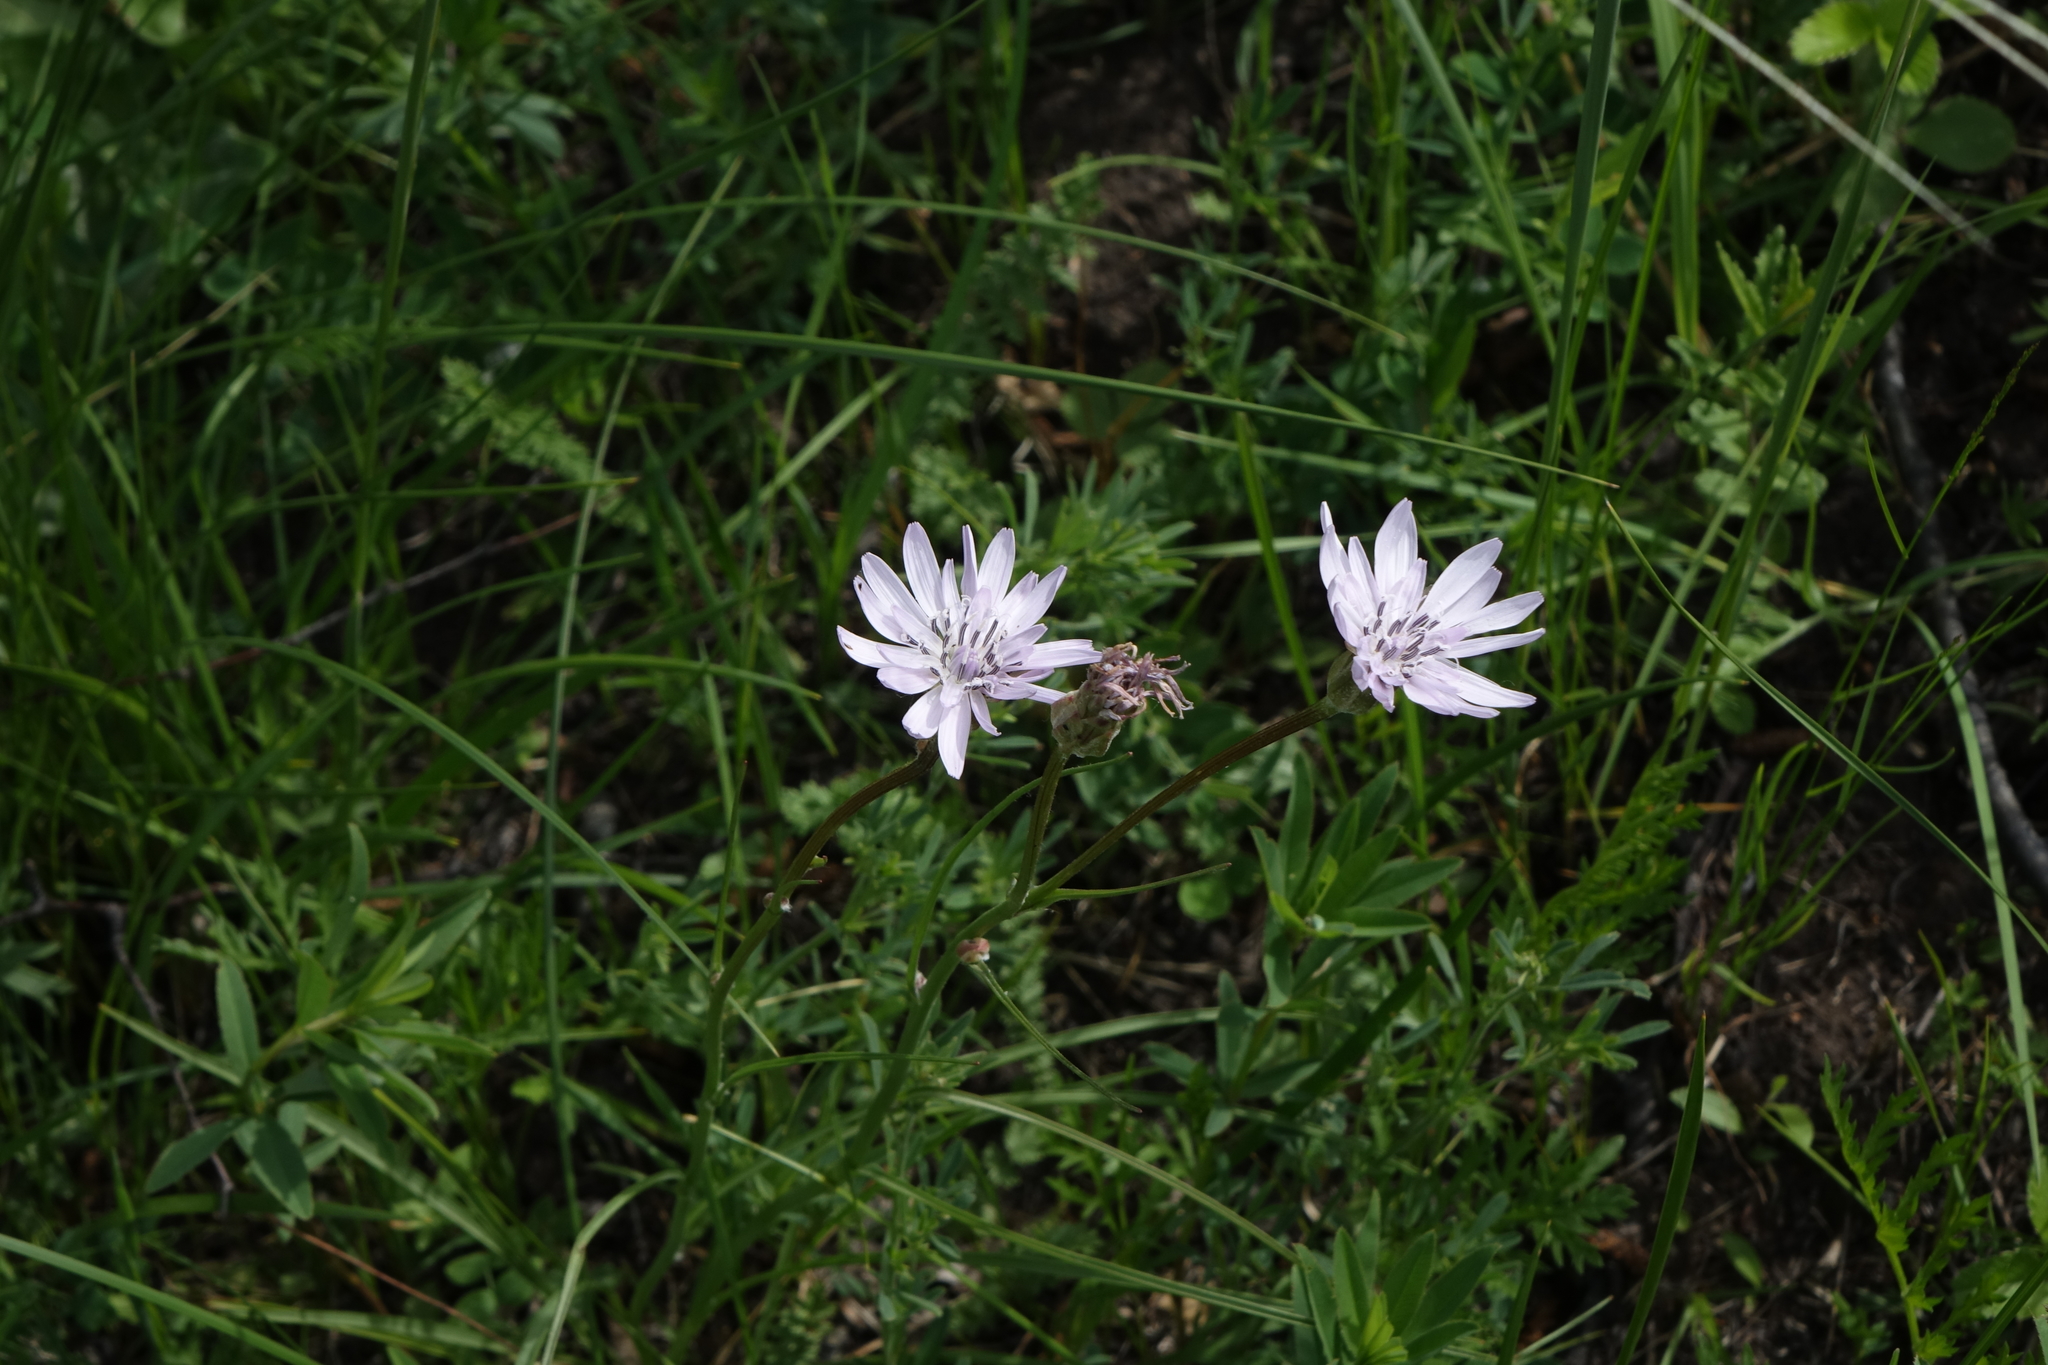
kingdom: Plantae
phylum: Tracheophyta
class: Magnoliopsida
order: Asterales
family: Asteraceae
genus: Scorzonera
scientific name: Scorzonera purpurea
